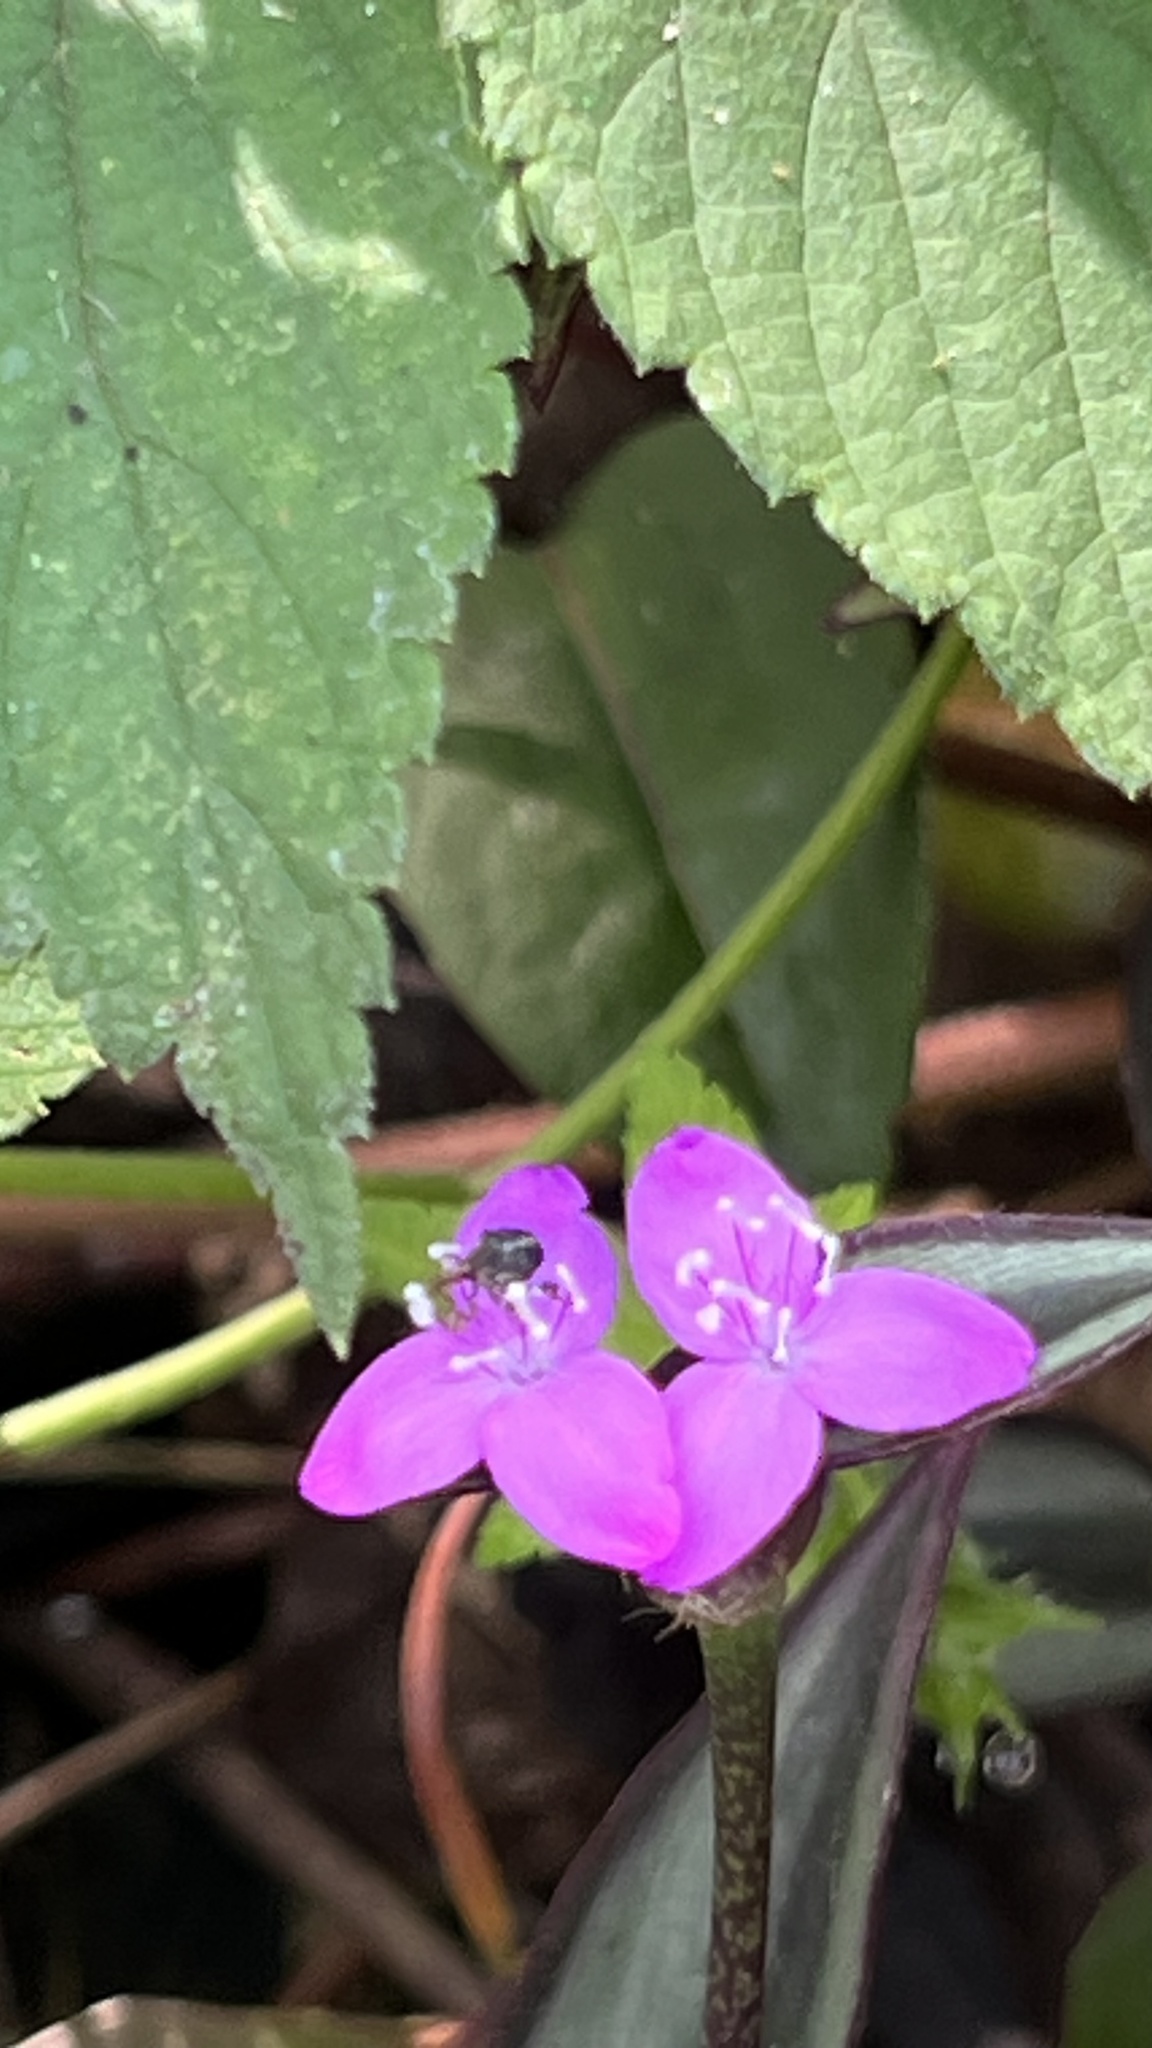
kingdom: Plantae
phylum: Tracheophyta
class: Liliopsida
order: Commelinales
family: Commelinaceae
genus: Tradescantia
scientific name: Tradescantia zebrina
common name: Inchplant
